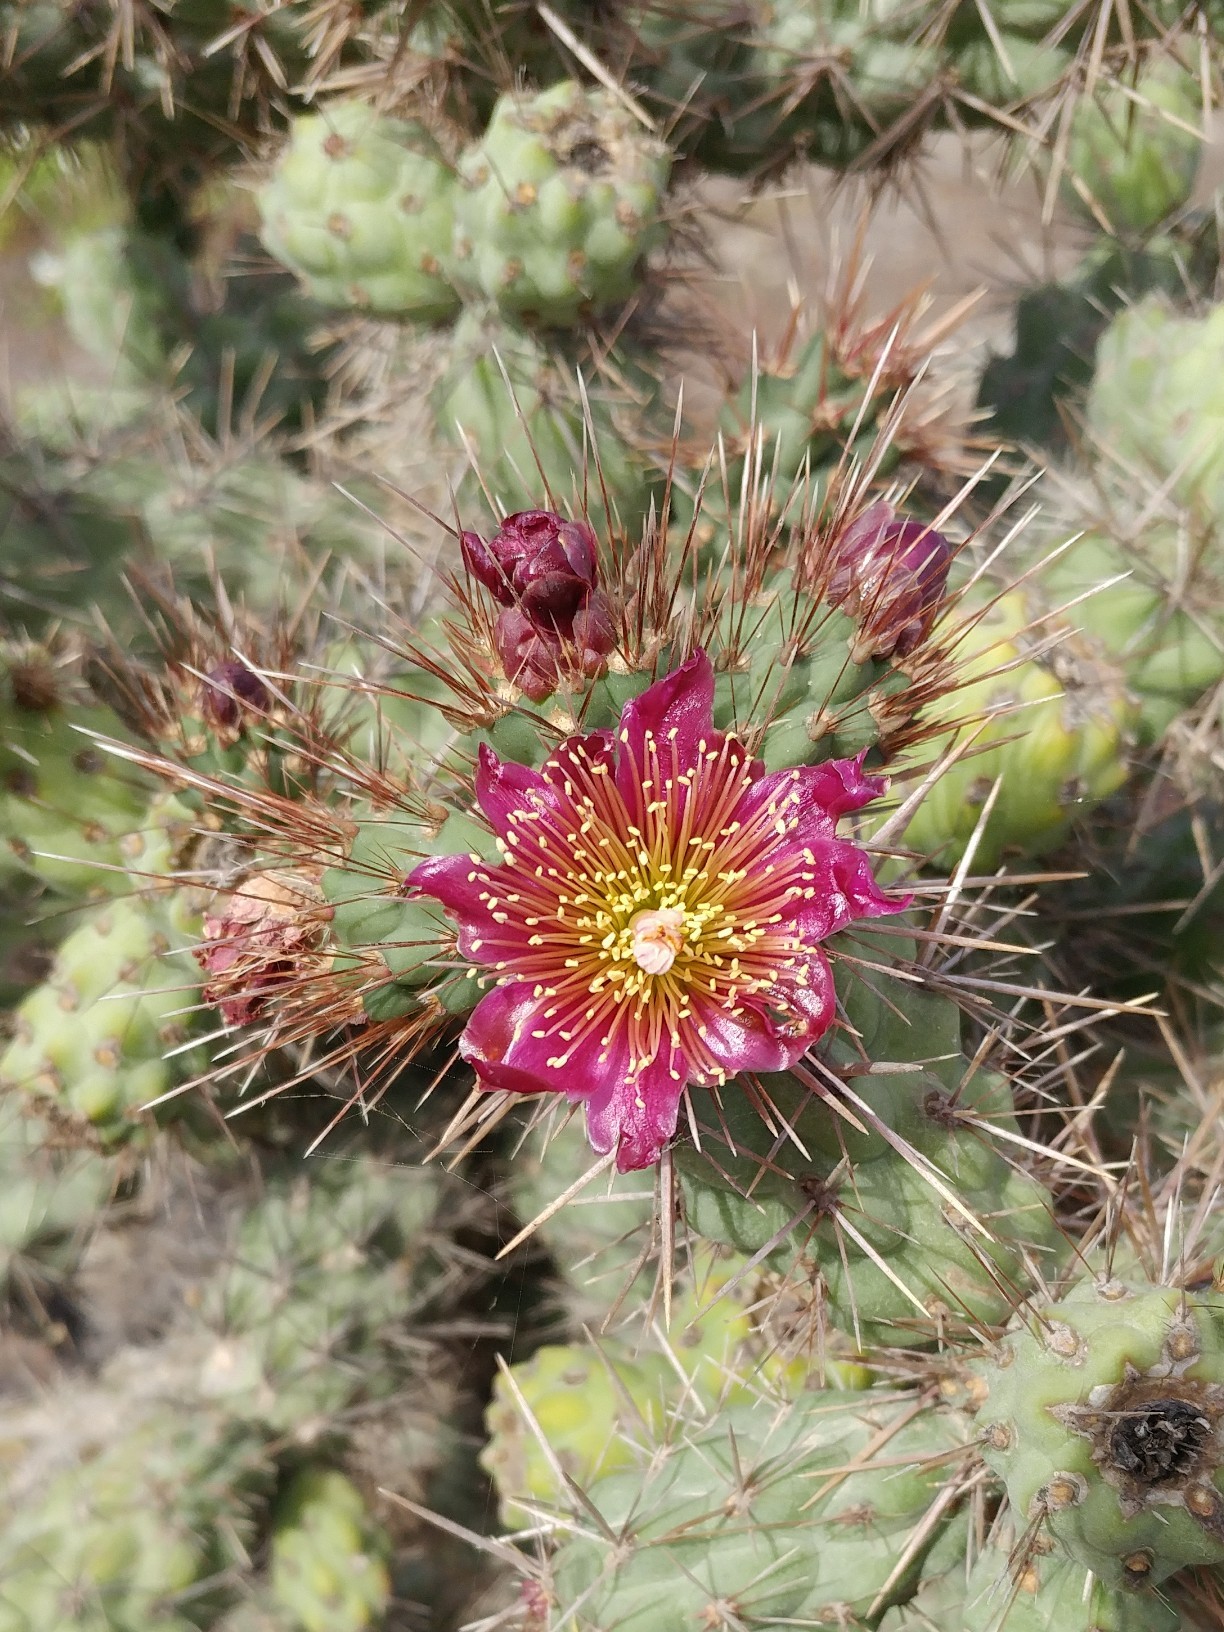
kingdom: Plantae
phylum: Tracheophyta
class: Magnoliopsida
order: Caryophyllales
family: Cactaceae
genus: Cylindropuntia
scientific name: Cylindropuntia prolifera
